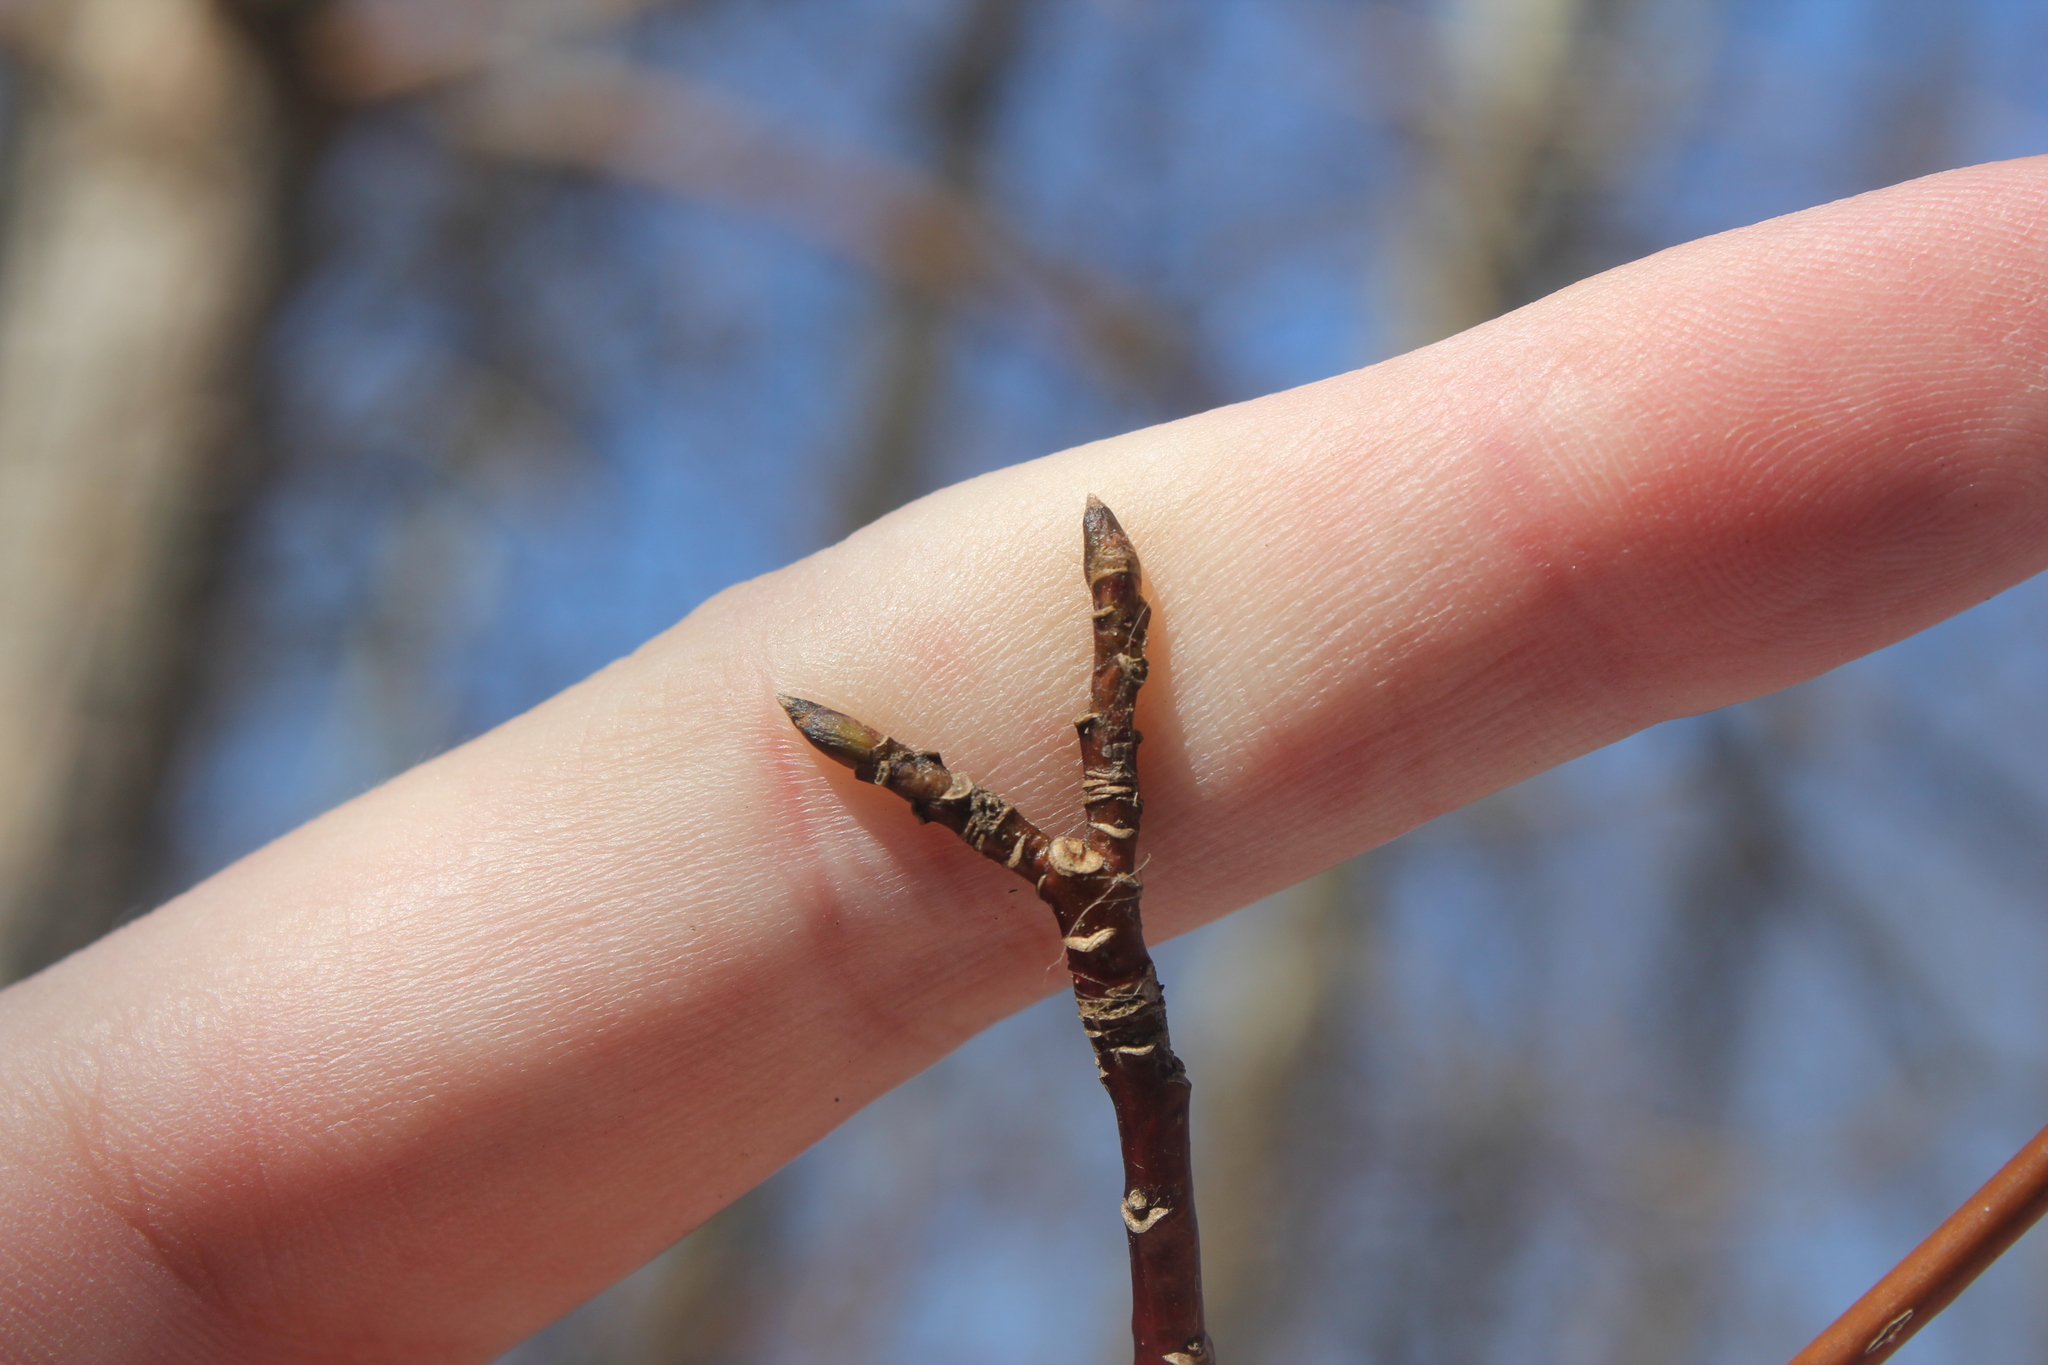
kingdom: Plantae
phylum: Tracheophyta
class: Magnoliopsida
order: Cornales
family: Cornaceae
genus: Cornus
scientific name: Cornus sericea
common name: Red-osier dogwood
